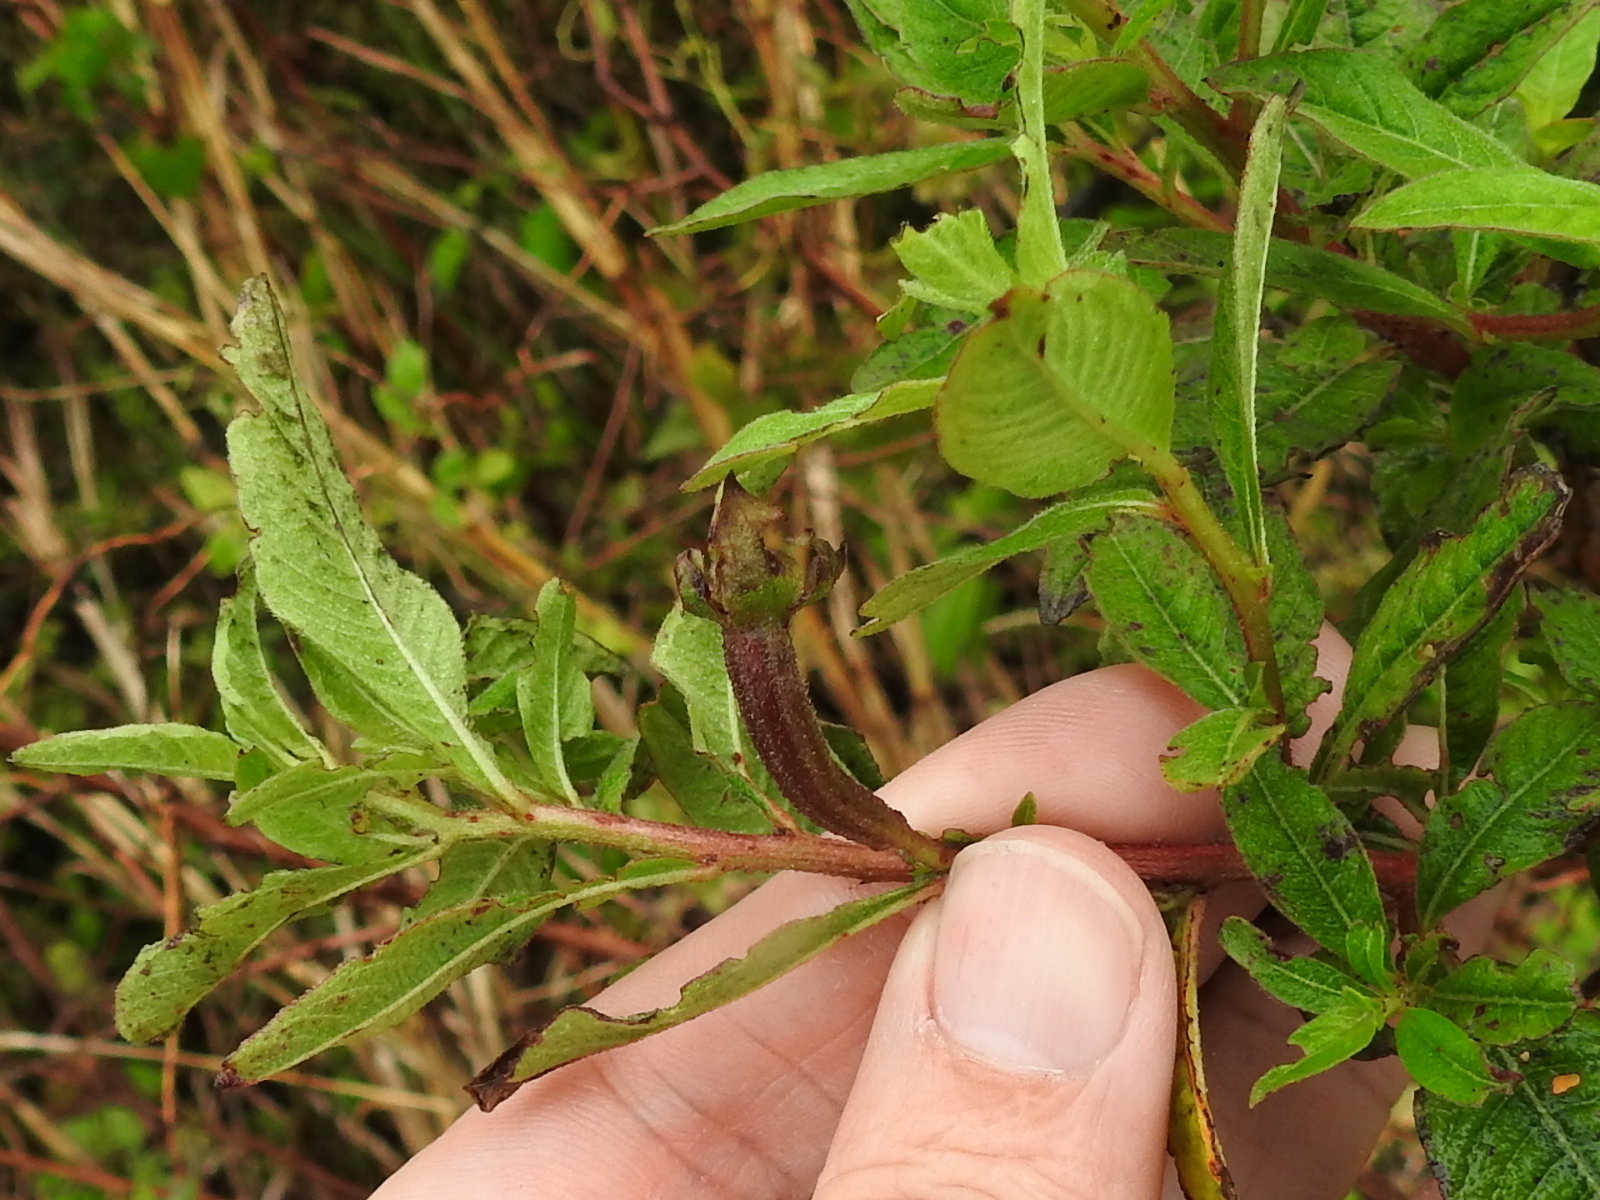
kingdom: Plantae
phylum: Tracheophyta
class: Magnoliopsida
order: Myrtales
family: Onagraceae
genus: Ludwigia
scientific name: Ludwigia peruviana
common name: Peruvian primrose-willow
